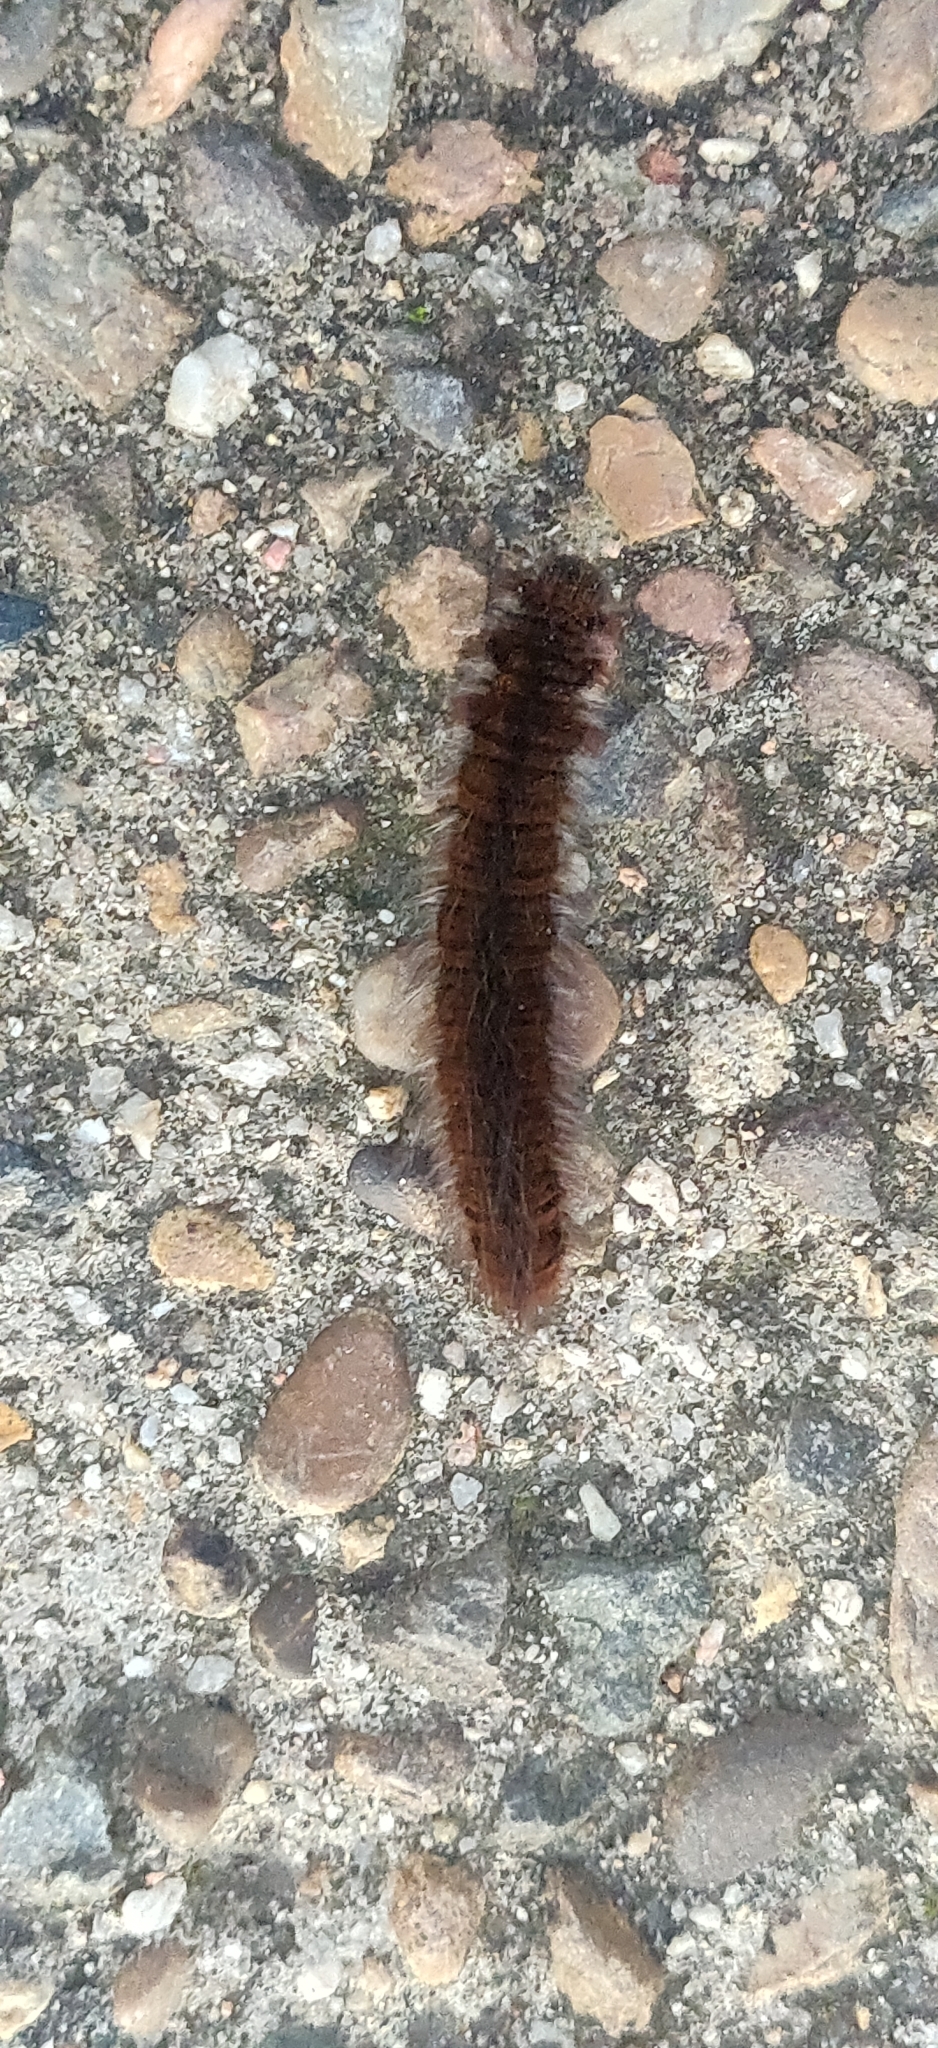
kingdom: Animalia
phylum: Arthropoda
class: Insecta
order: Lepidoptera
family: Lasiocampidae
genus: Macrothylacia
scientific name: Macrothylacia rubi
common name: Fox moth
